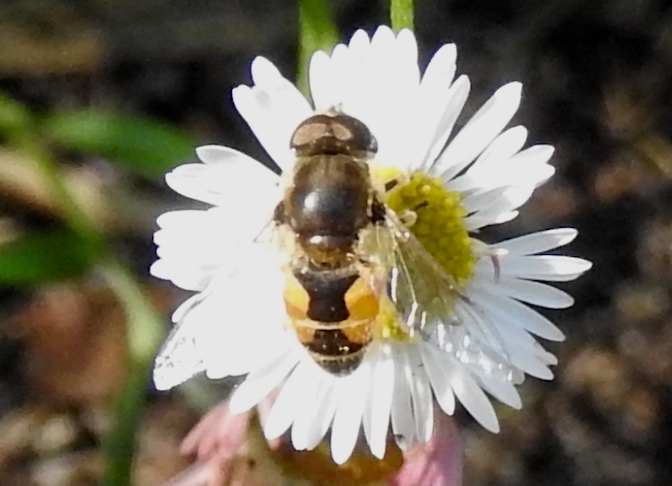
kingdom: Animalia
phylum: Arthropoda
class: Insecta
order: Diptera
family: Syrphidae
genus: Eristalis
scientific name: Eristalis arbustorum
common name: Hover fly
